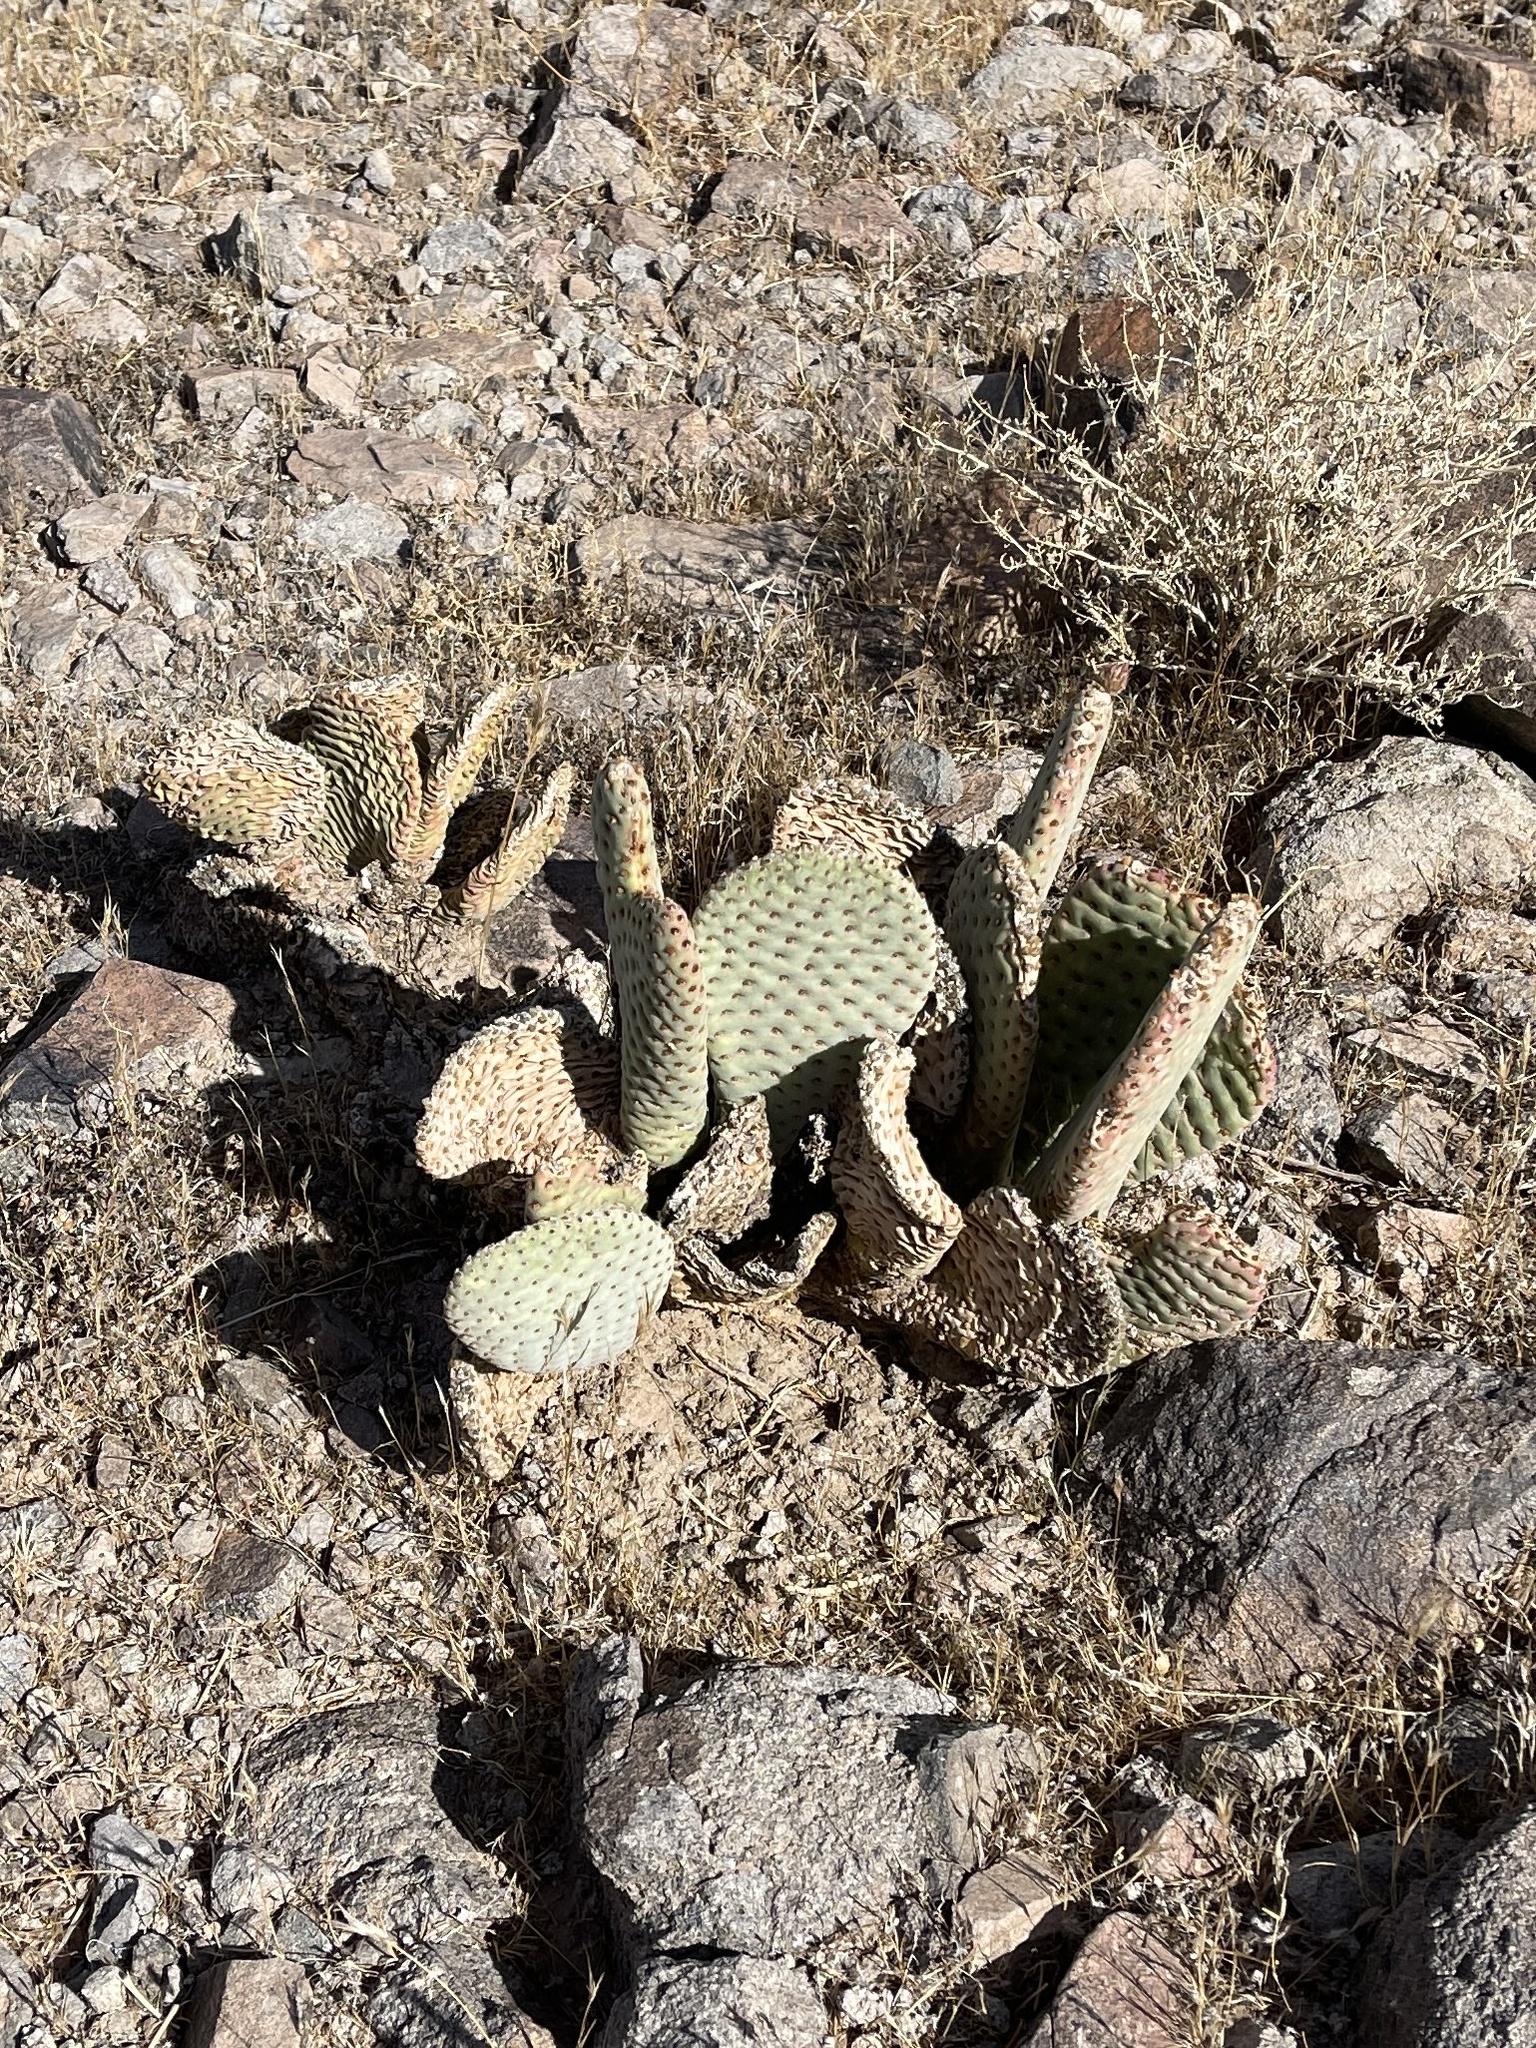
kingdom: Plantae
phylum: Tracheophyta
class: Magnoliopsida
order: Caryophyllales
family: Cactaceae
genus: Opuntia
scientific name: Opuntia basilaris
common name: Beavertail prickly-pear
